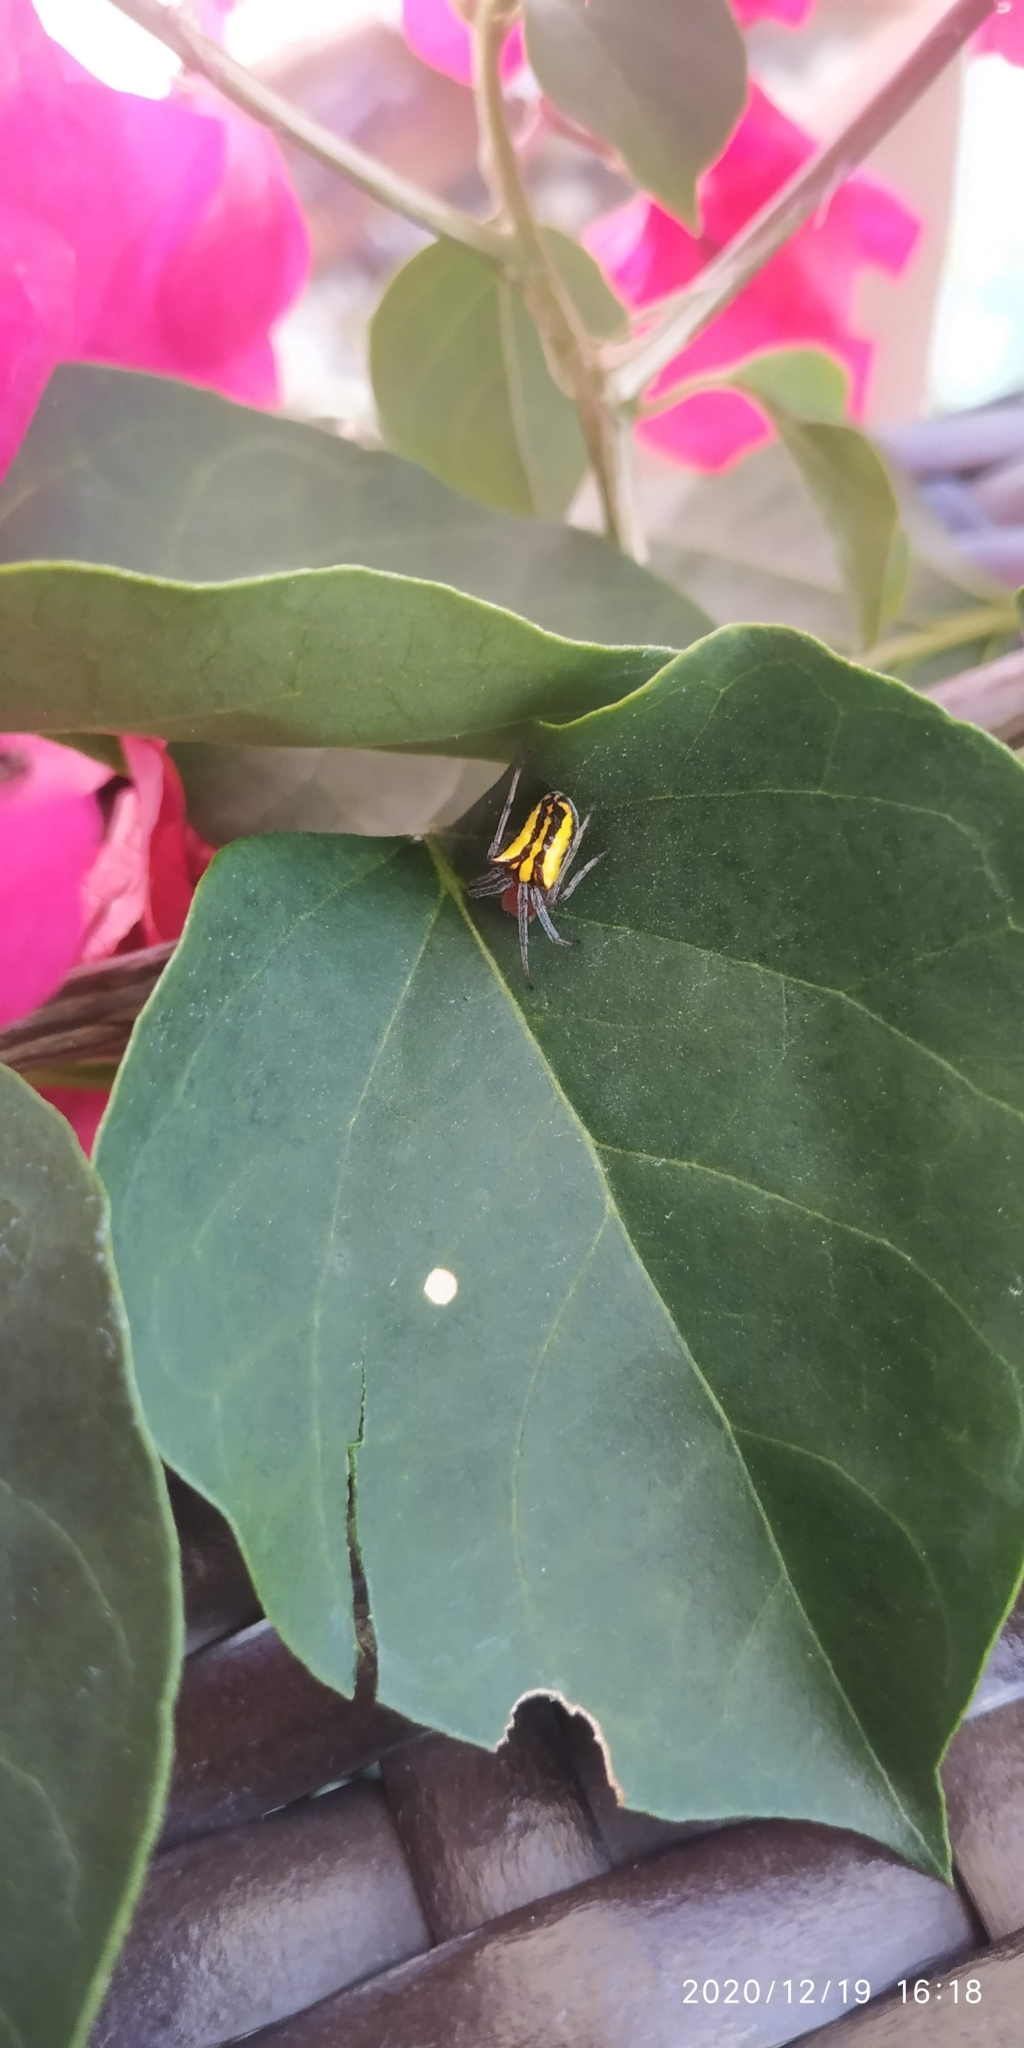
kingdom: Animalia
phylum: Arthropoda
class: Arachnida
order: Araneae
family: Araneidae
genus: Alpaida
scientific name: Alpaida bicornuta
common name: Orb weavers
